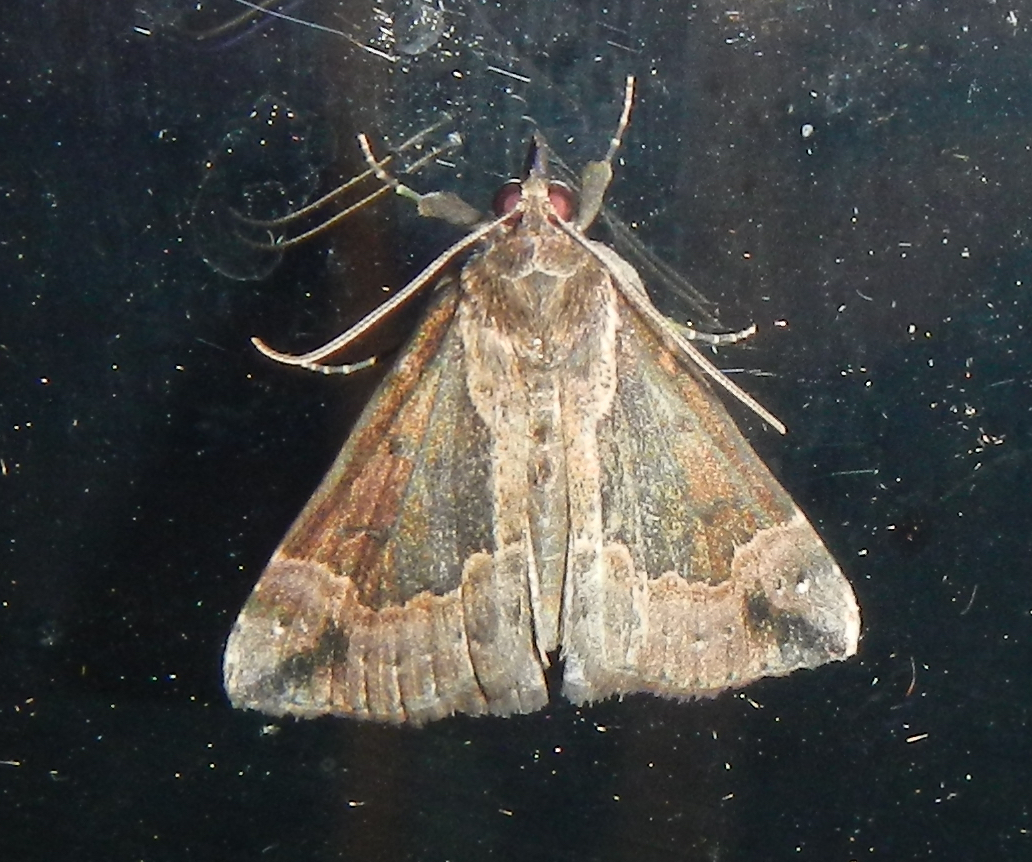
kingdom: Animalia
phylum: Arthropoda
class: Insecta
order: Lepidoptera
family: Erebidae
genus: Hypena
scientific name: Hypena baltimoralis
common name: Baltimore snout
